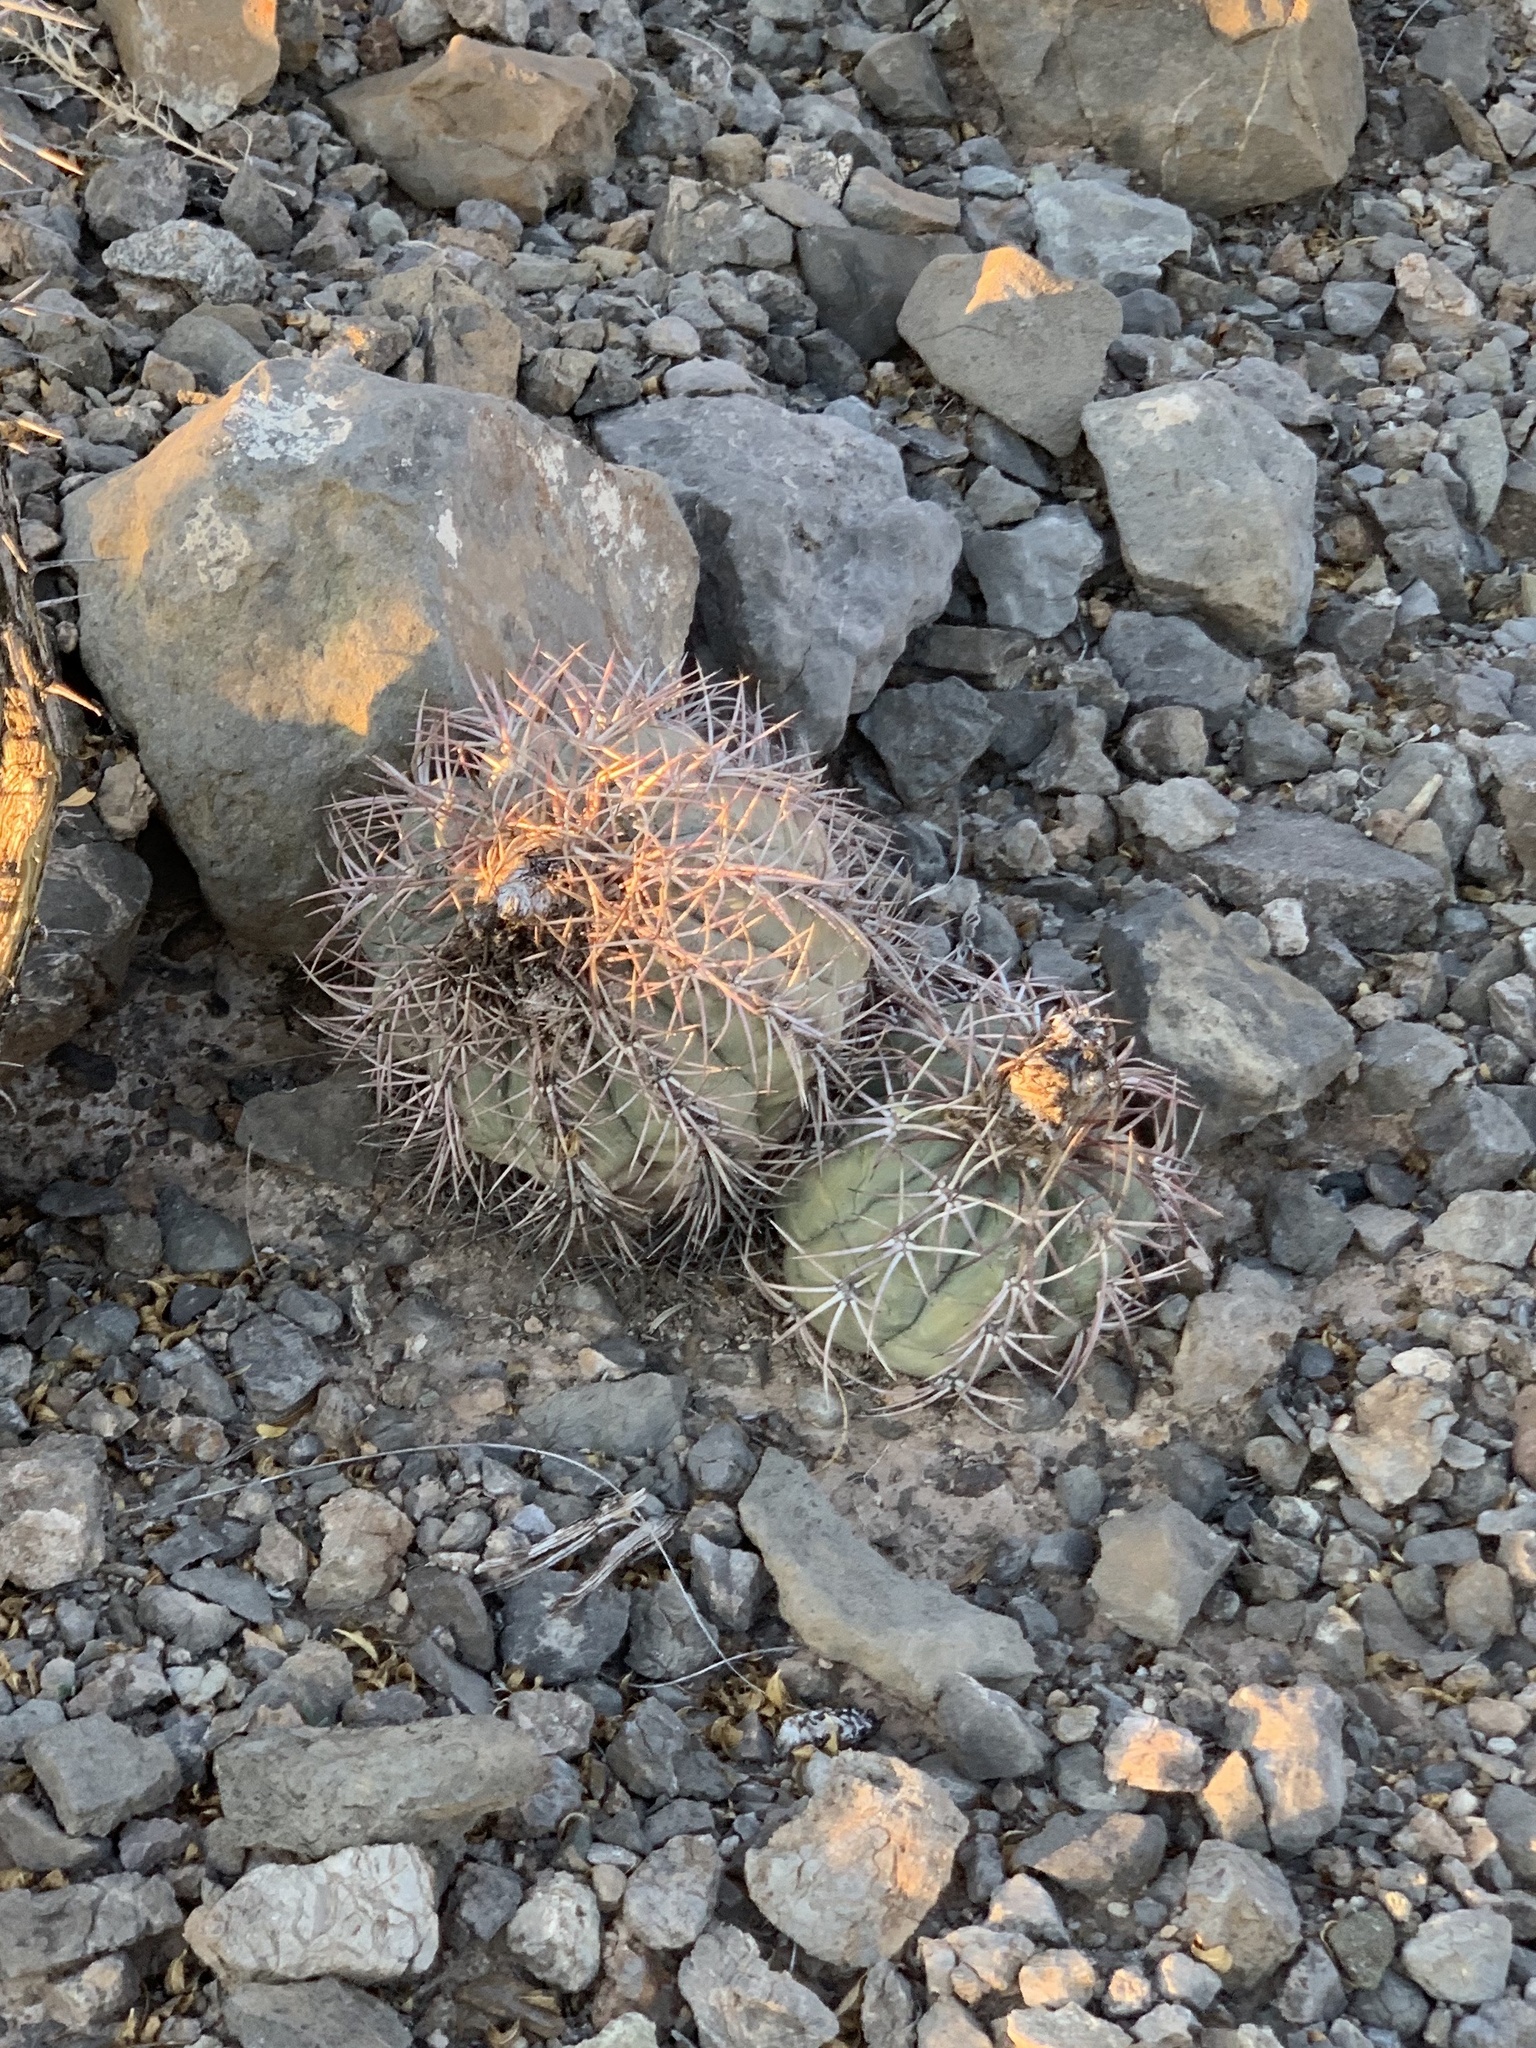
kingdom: Plantae
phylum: Tracheophyta
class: Magnoliopsida
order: Caryophyllales
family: Cactaceae
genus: Echinocactus
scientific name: Echinocactus horizonthalonius
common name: Devilshead
